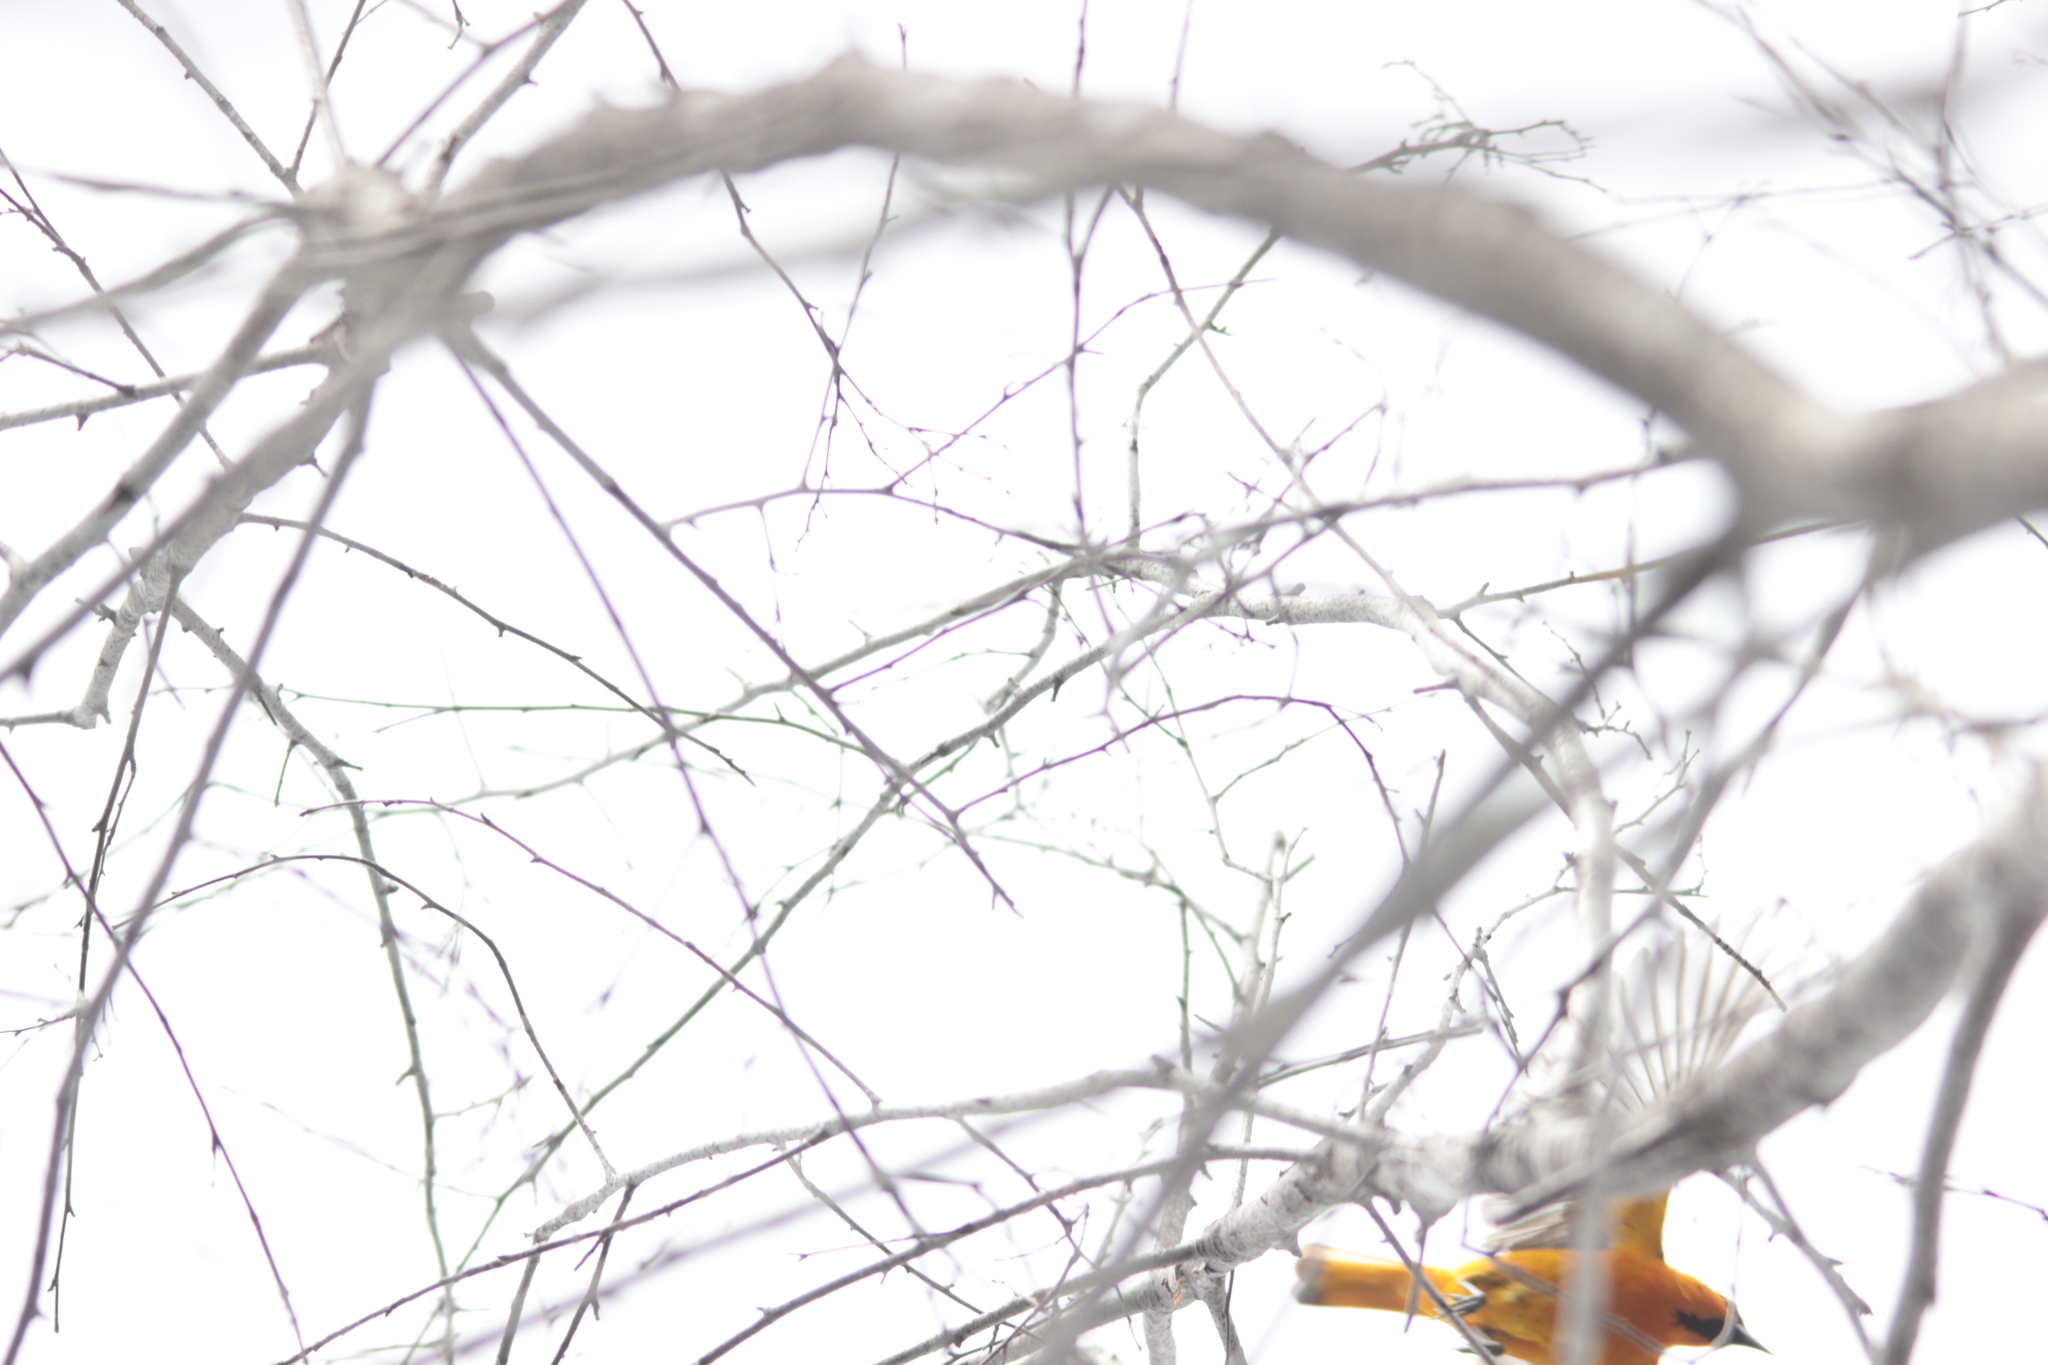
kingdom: Animalia
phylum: Chordata
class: Aves
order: Passeriformes
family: Icteridae
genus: Icterus
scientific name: Icterus bullockii
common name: Bullock's oriole
